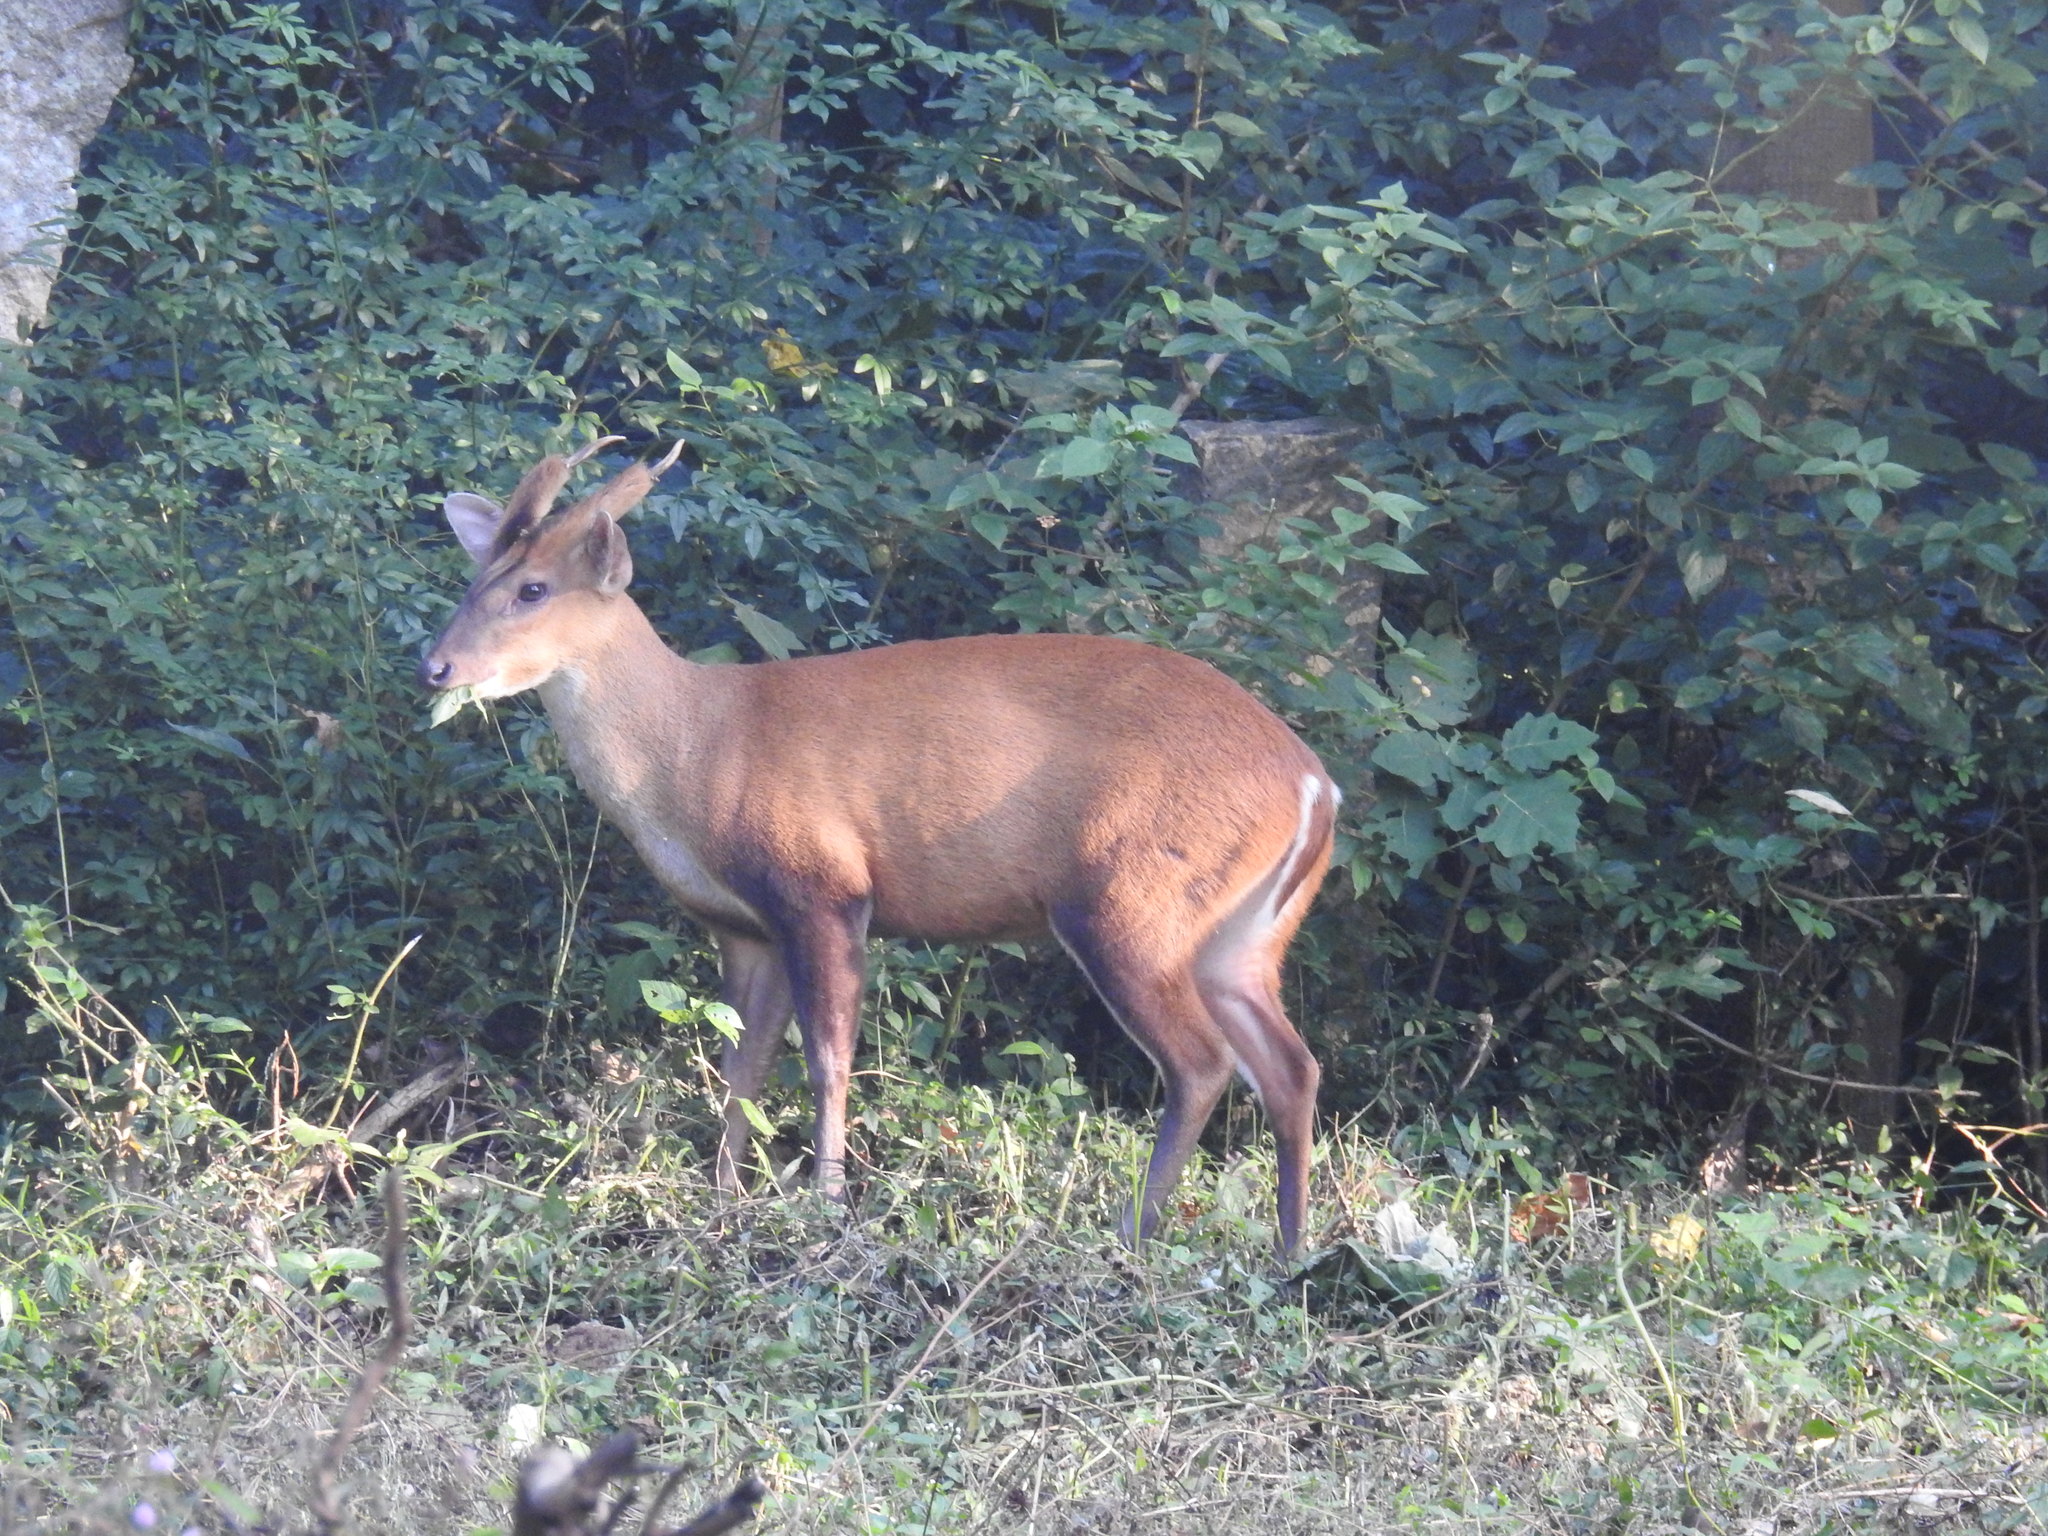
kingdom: Animalia
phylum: Chordata
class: Mammalia
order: Artiodactyla
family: Cervidae
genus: Muntiacus
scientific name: Muntiacus muntjak
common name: Indian muntjac
